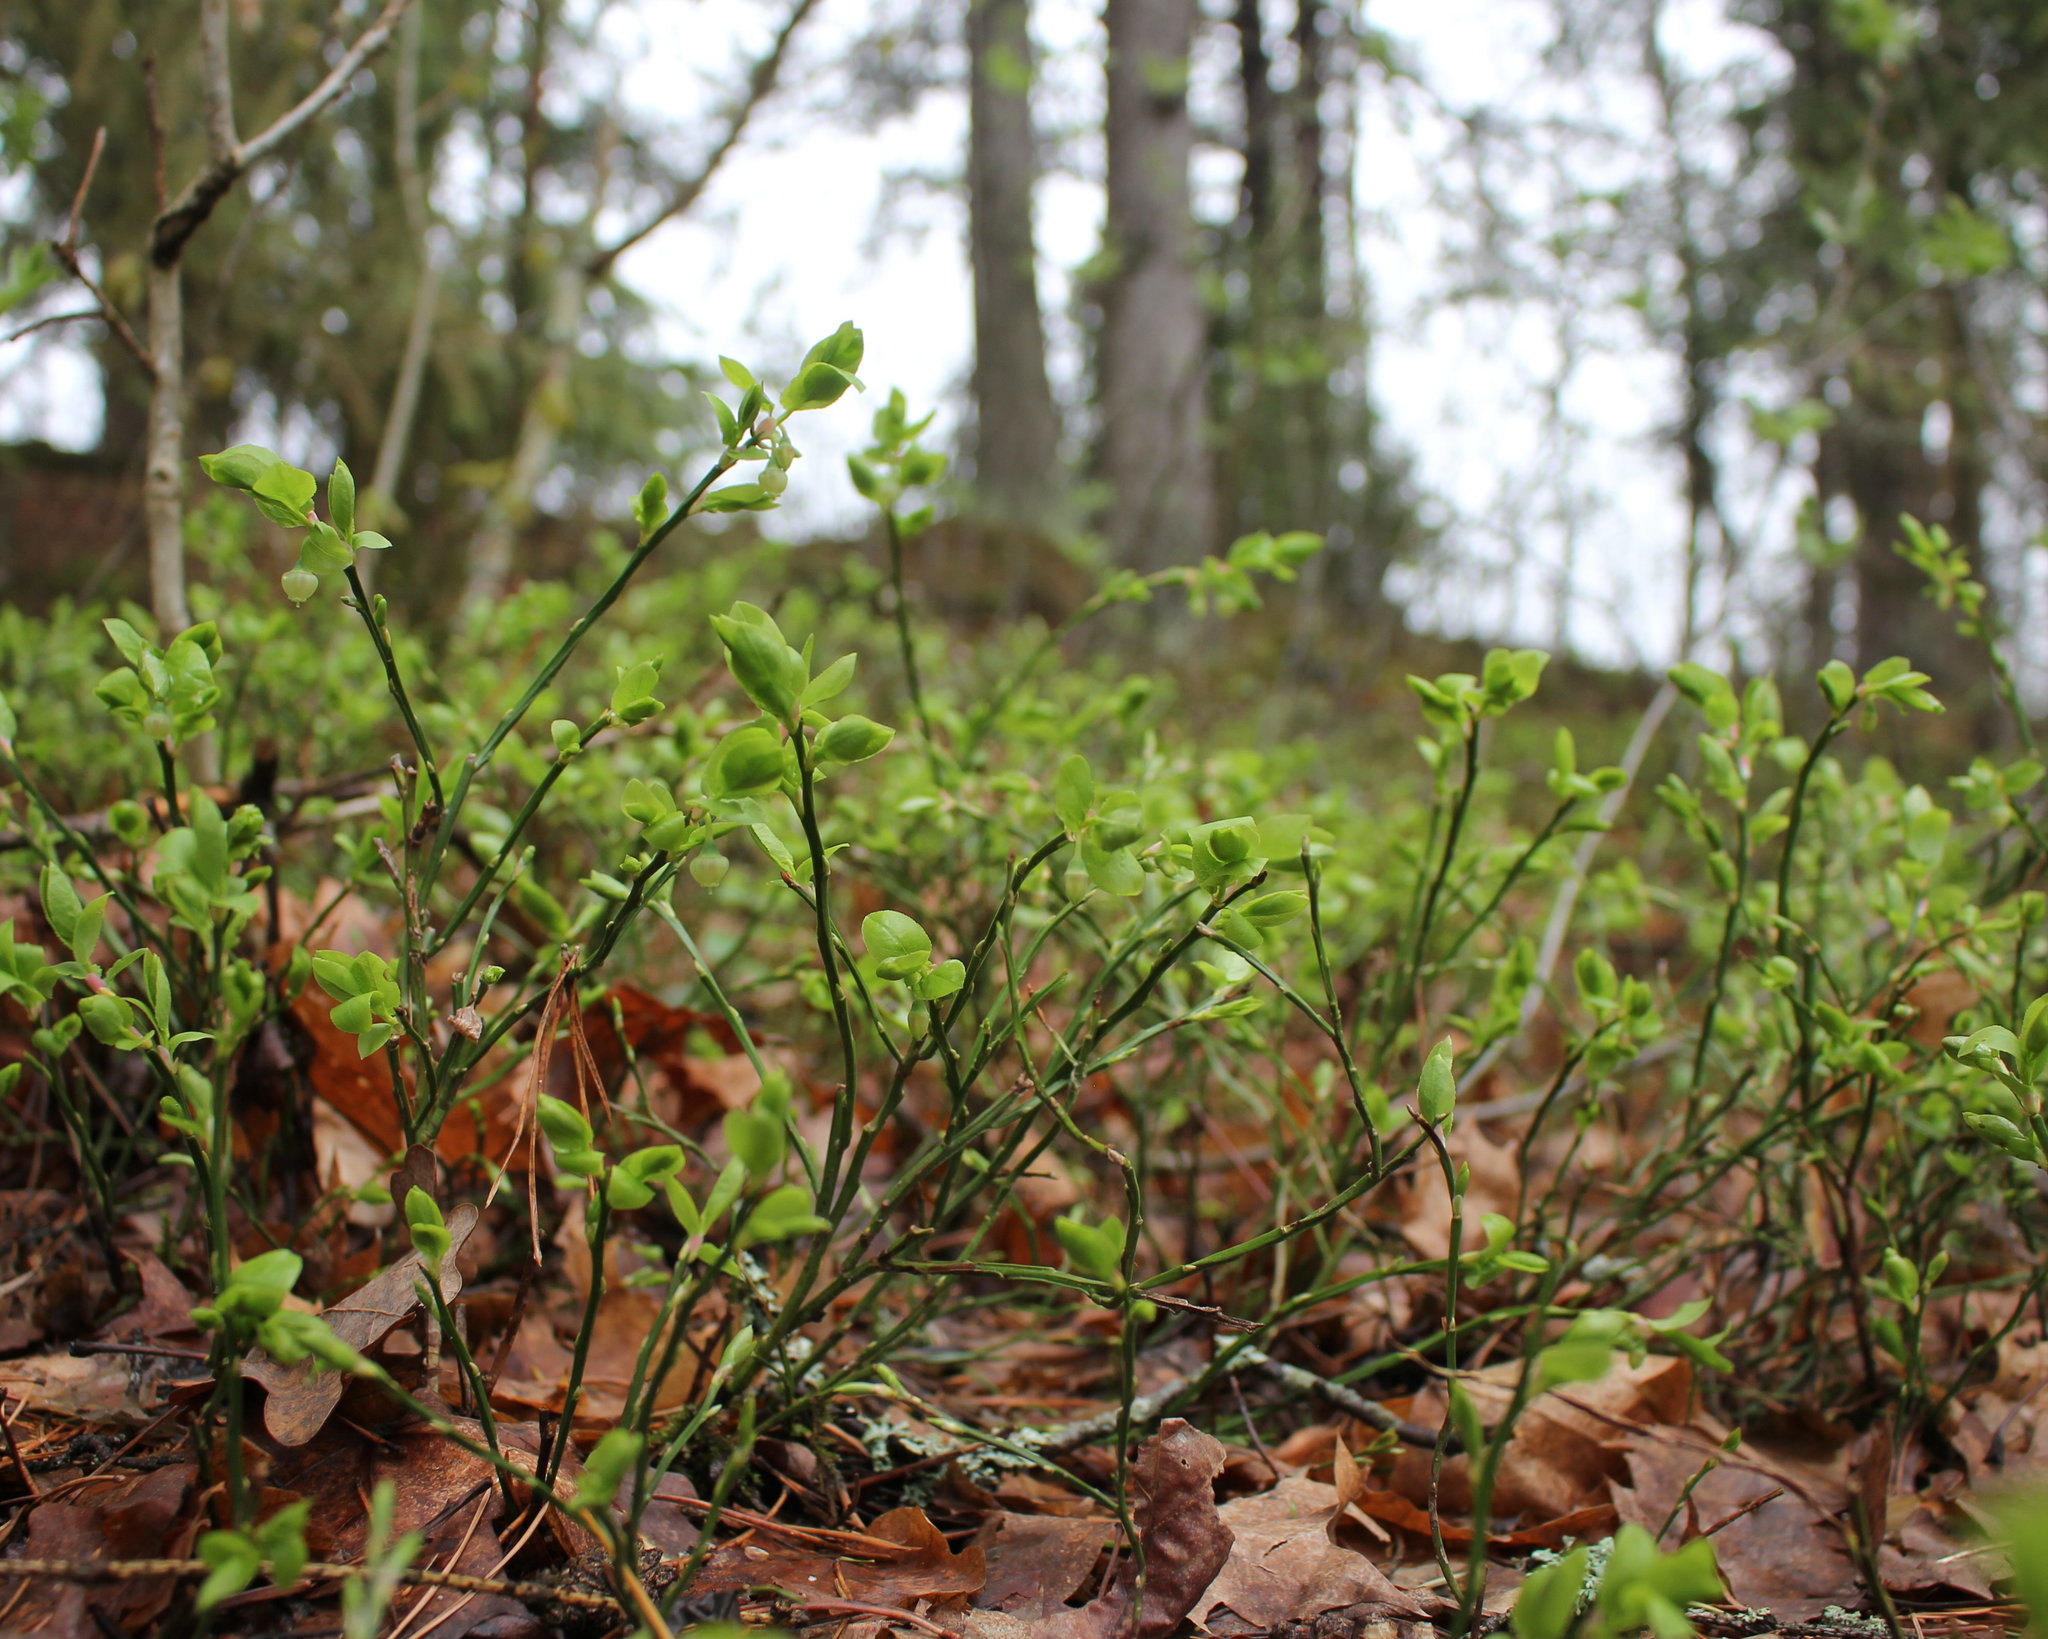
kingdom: Plantae
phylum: Tracheophyta
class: Magnoliopsida
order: Ericales
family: Ericaceae
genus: Vaccinium
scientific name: Vaccinium myrtillus
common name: Bilberry
